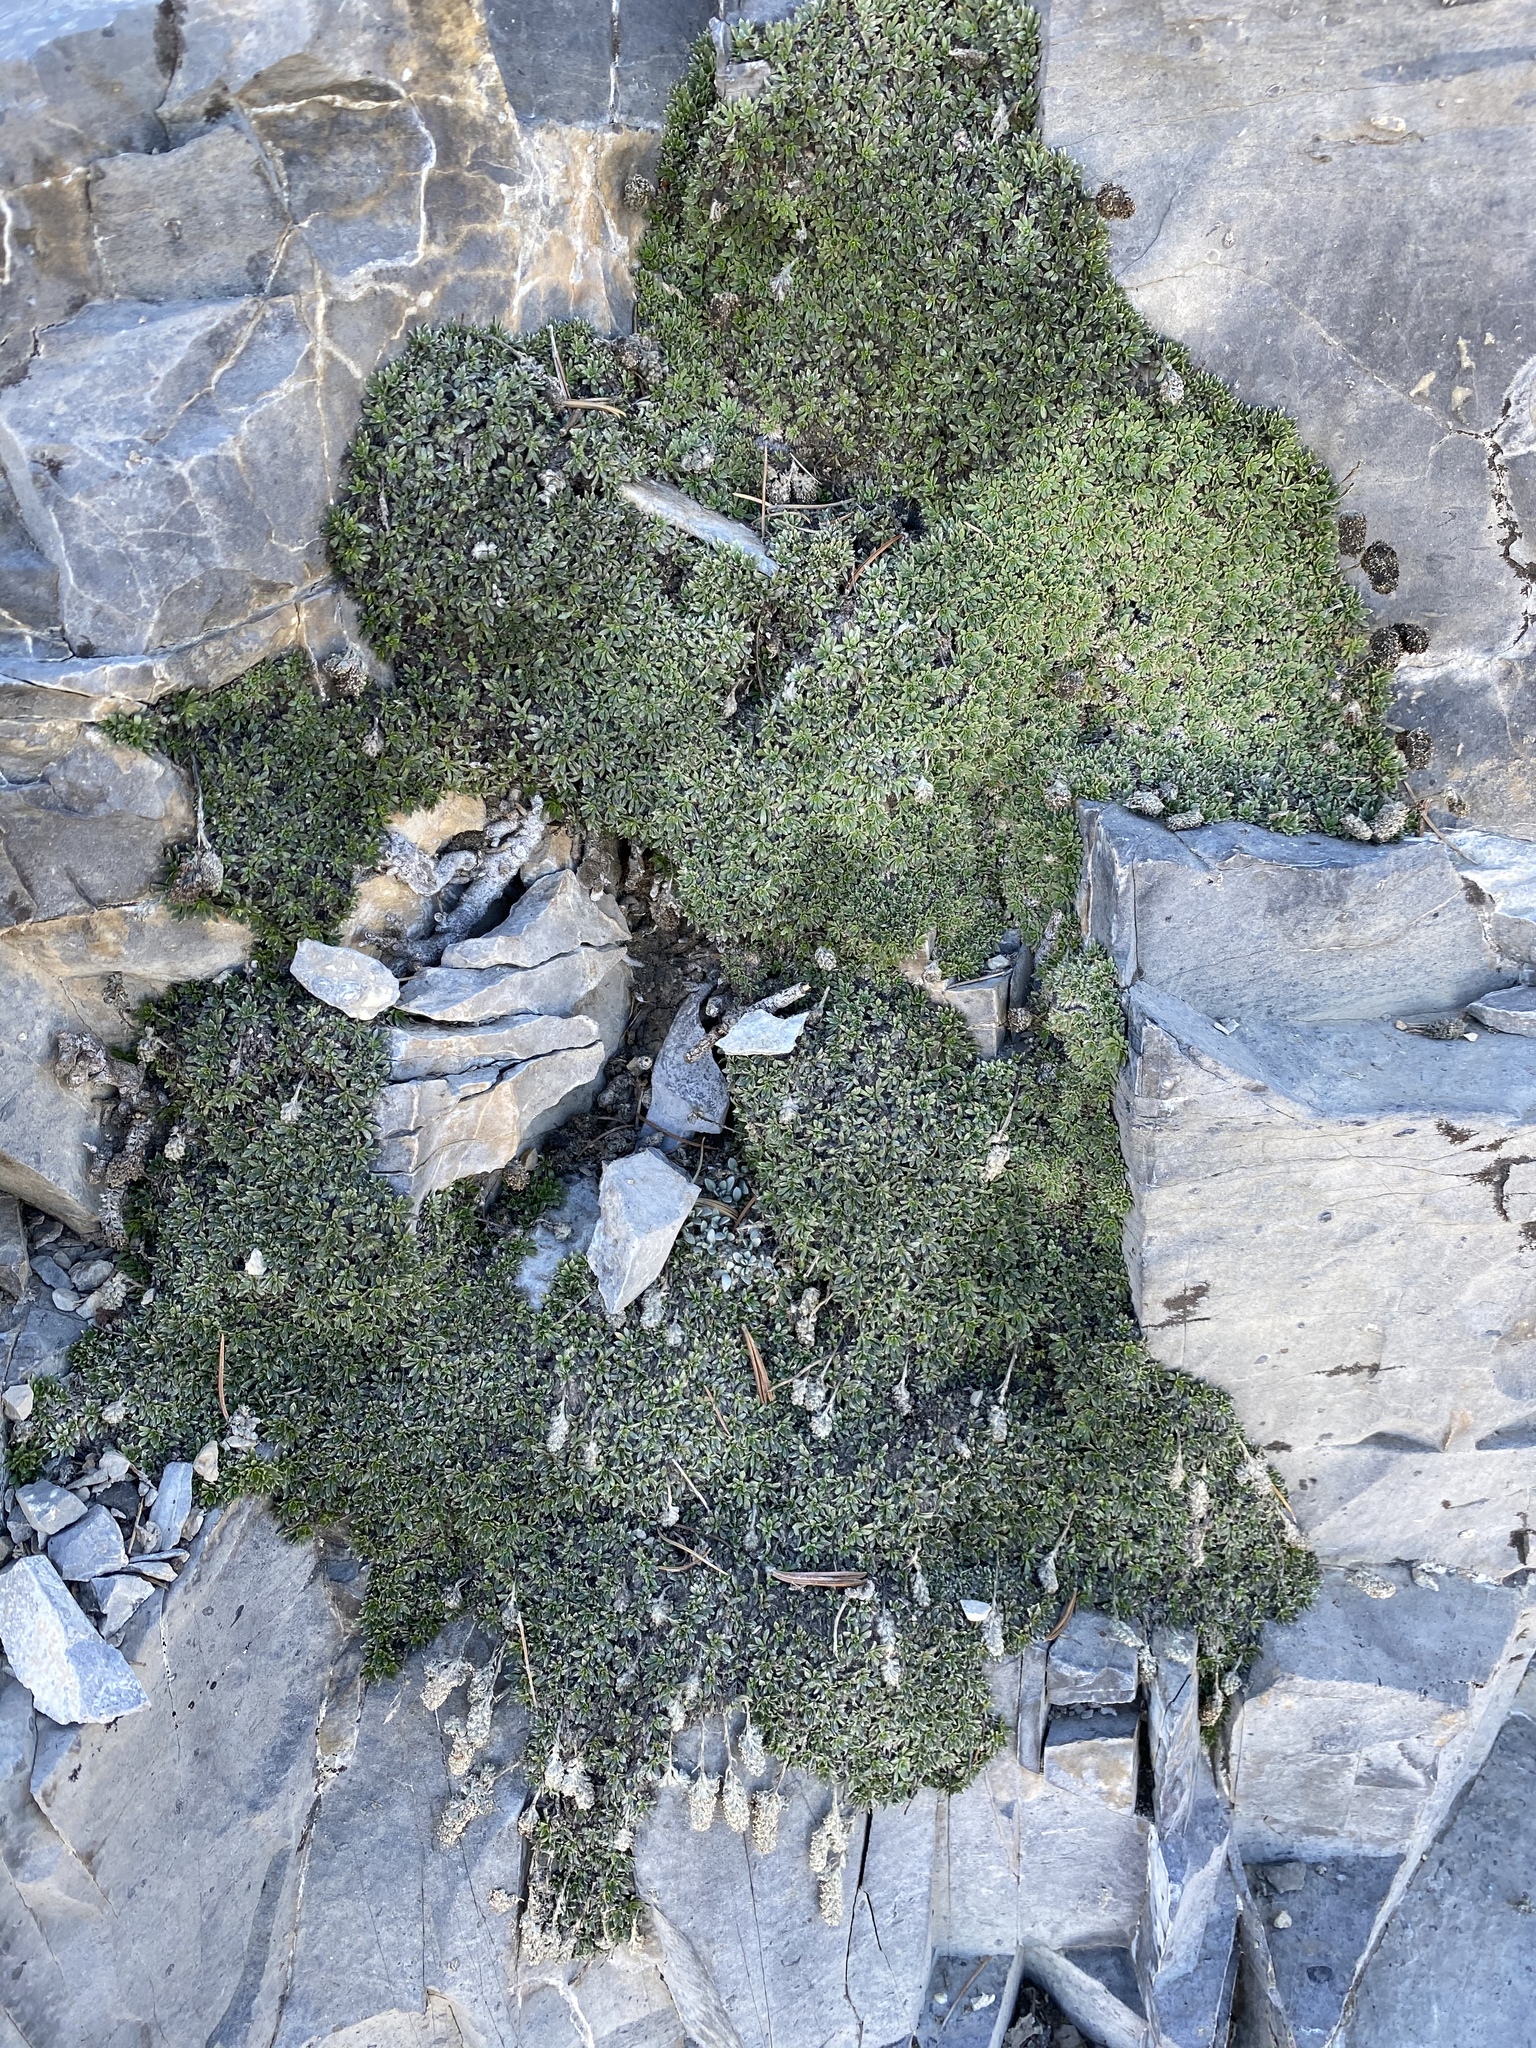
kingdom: Plantae
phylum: Tracheophyta
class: Magnoliopsida
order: Rosales
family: Rosaceae
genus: Petrophytum
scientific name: Petrophytum caespitosum
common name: Mat rockspirea
